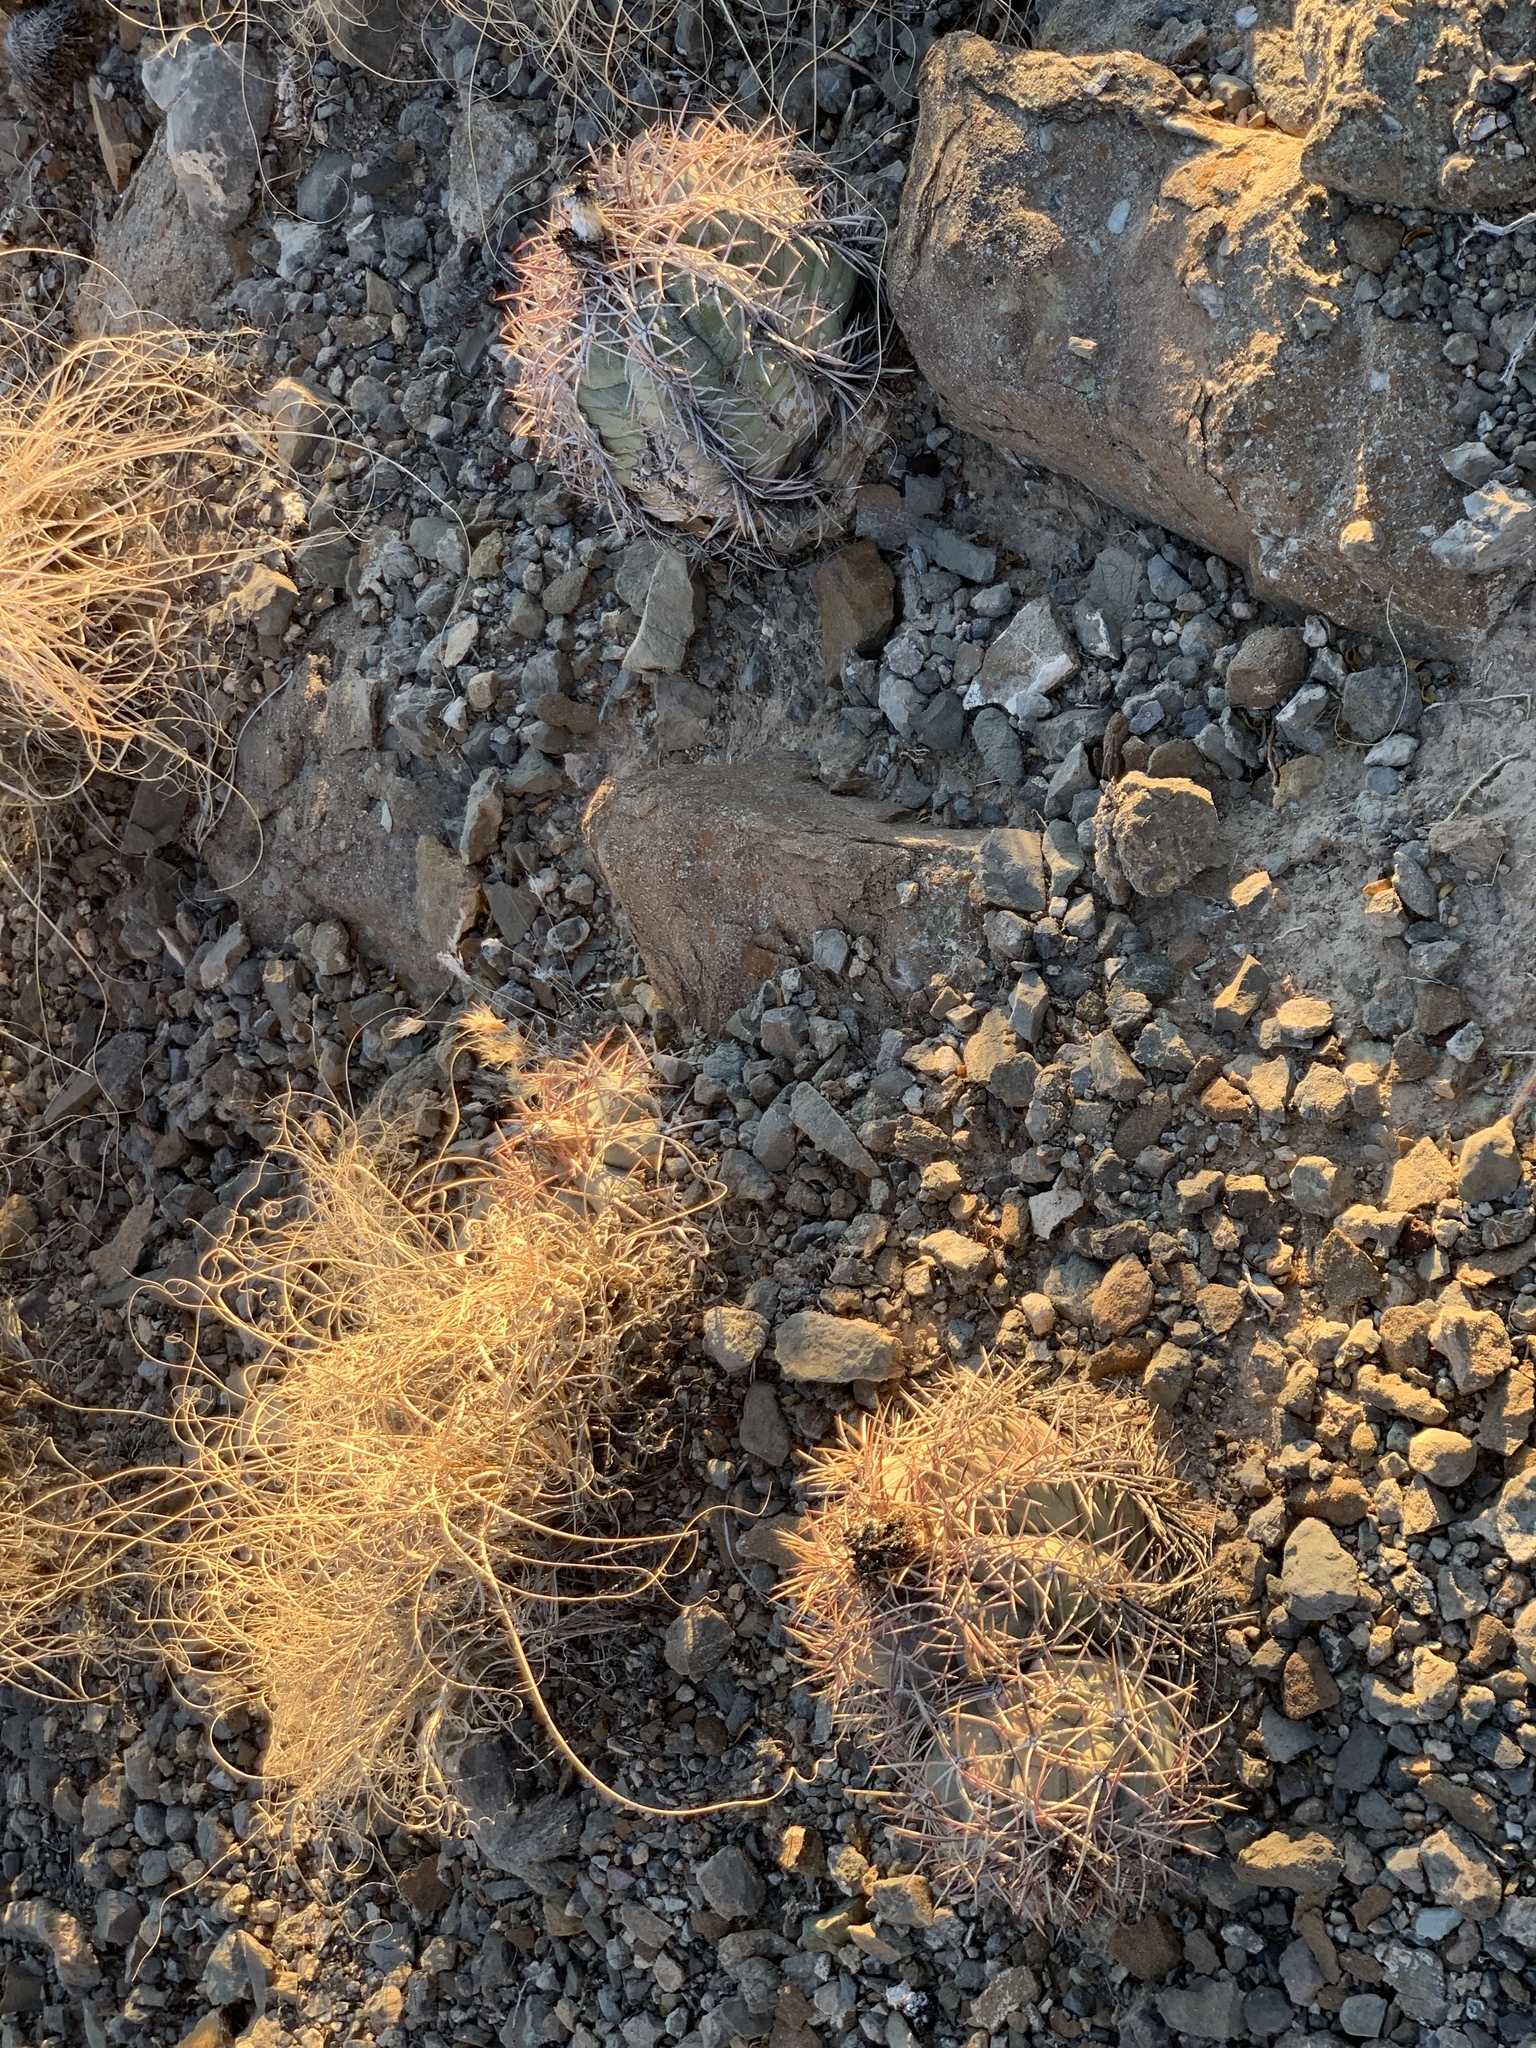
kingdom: Plantae
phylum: Tracheophyta
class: Magnoliopsida
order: Caryophyllales
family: Cactaceae
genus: Echinocactus
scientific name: Echinocactus horizonthalonius
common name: Devilshead
